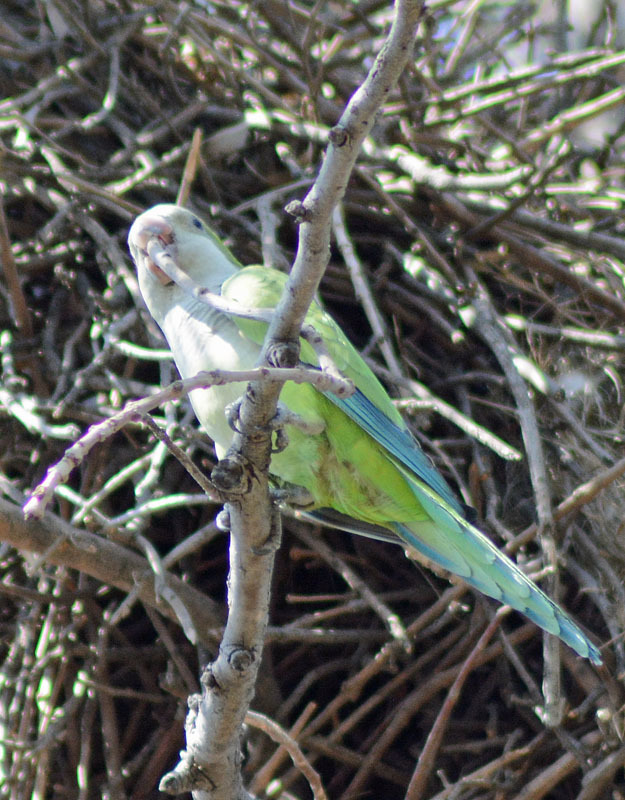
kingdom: Animalia
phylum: Chordata
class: Aves
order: Psittaciformes
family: Psittacidae
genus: Myiopsitta
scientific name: Myiopsitta monachus
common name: Monk parakeet
